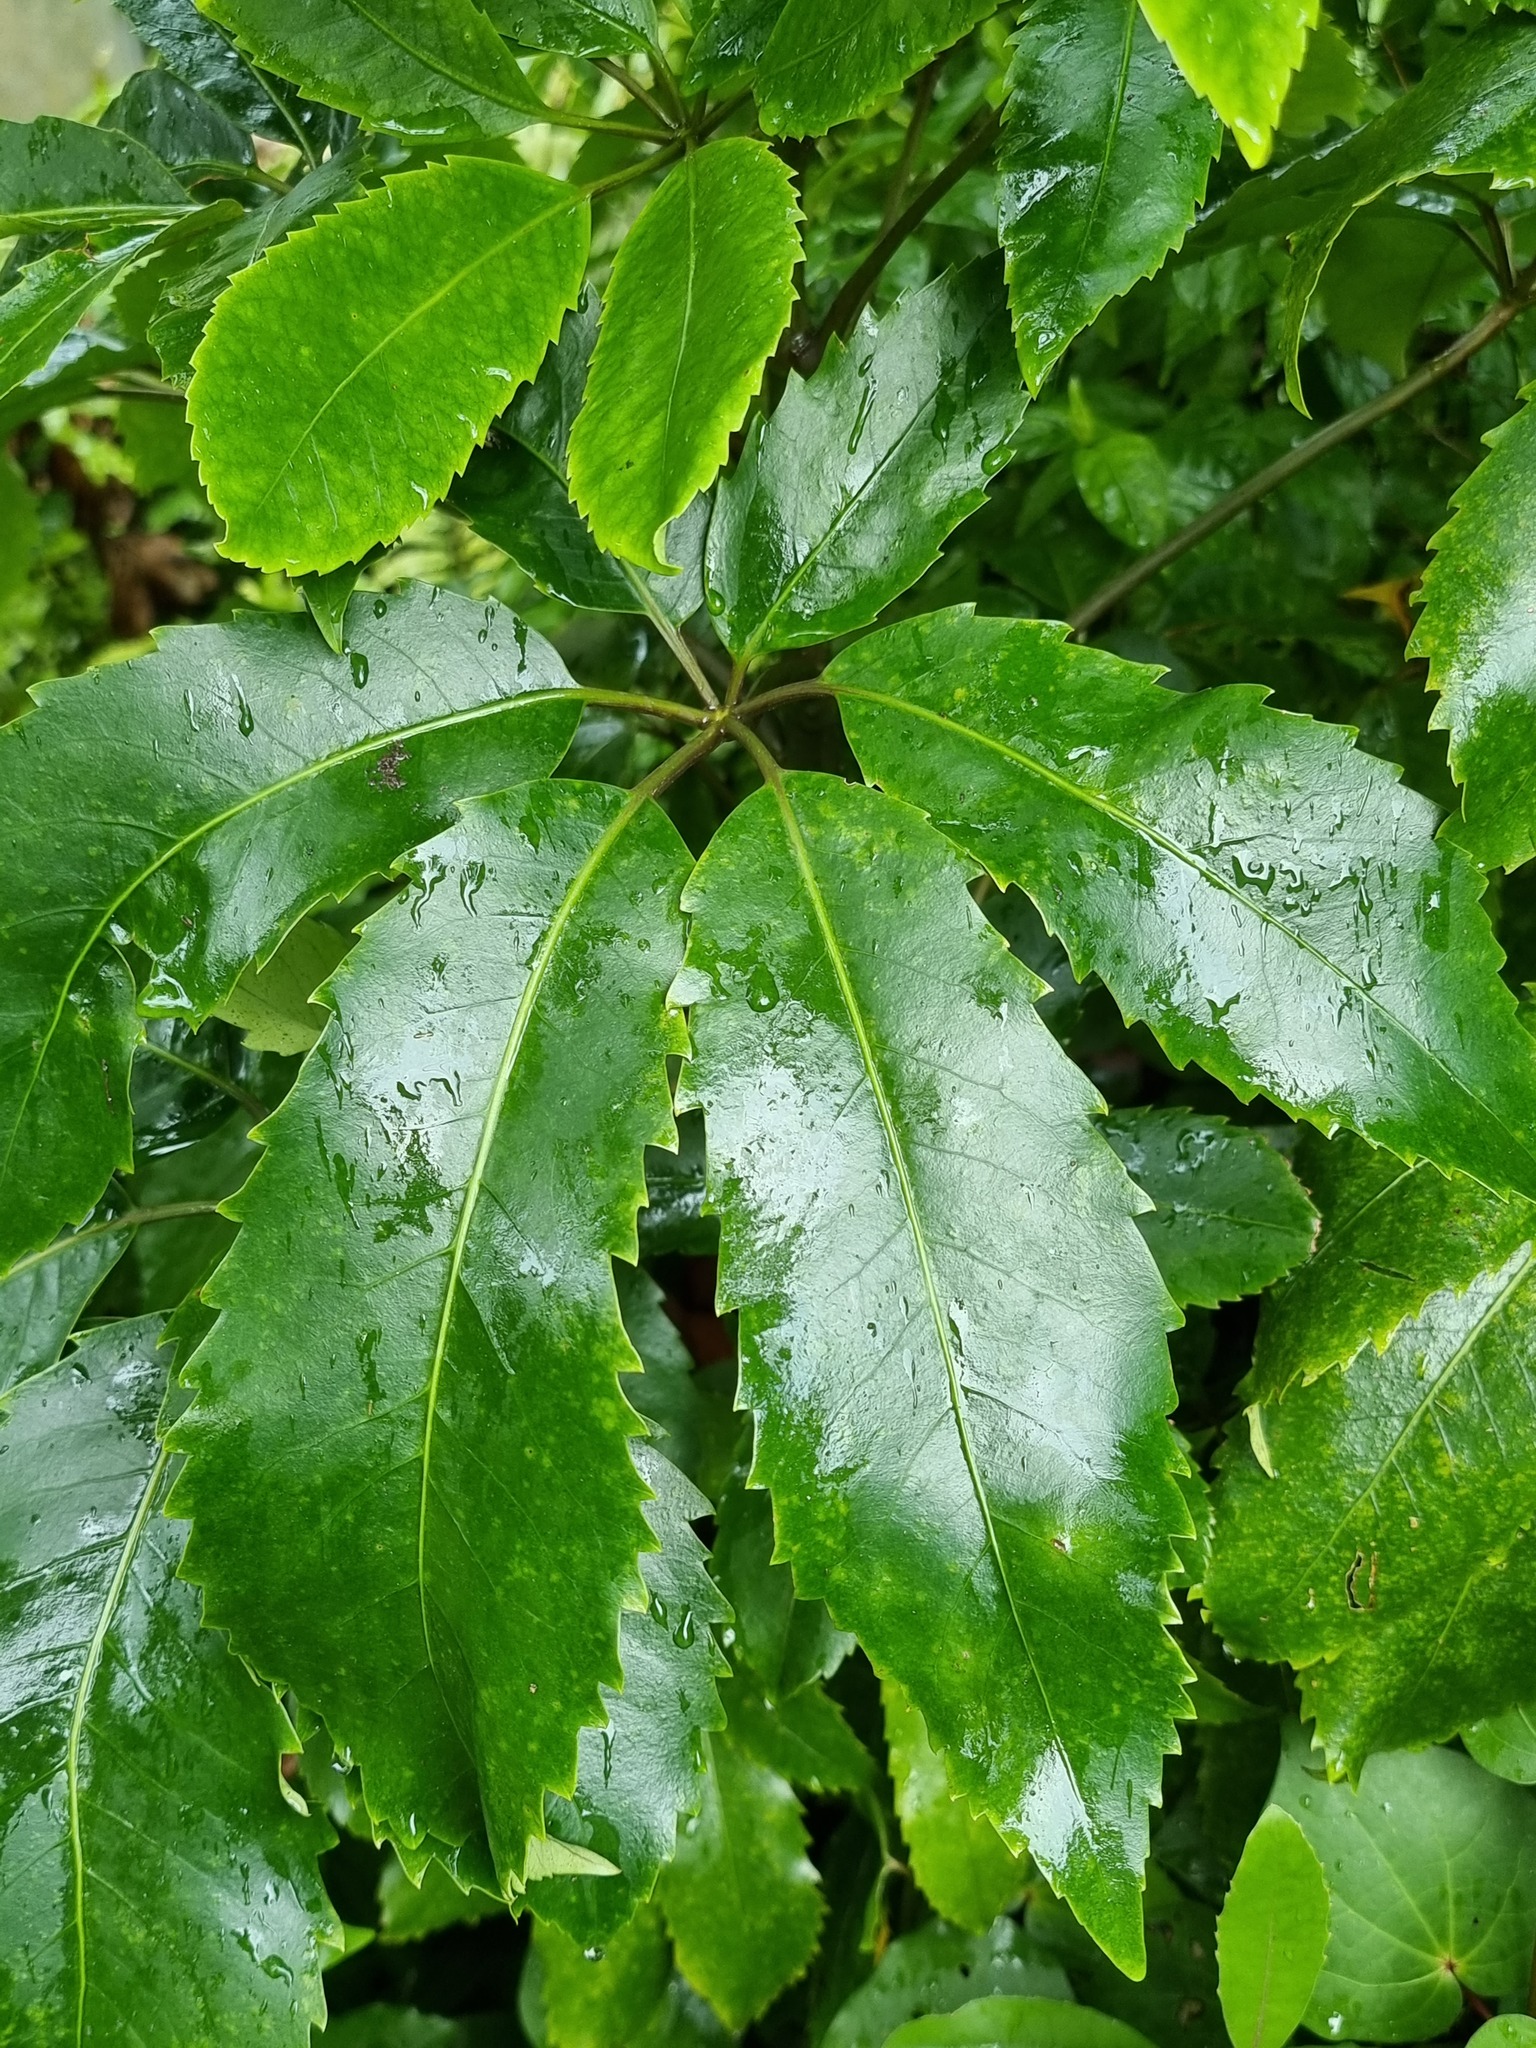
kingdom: Plantae
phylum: Tracheophyta
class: Magnoliopsida
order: Apiales
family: Araliaceae
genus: Neopanax
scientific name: Neopanax arboreus
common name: Five-fingers
